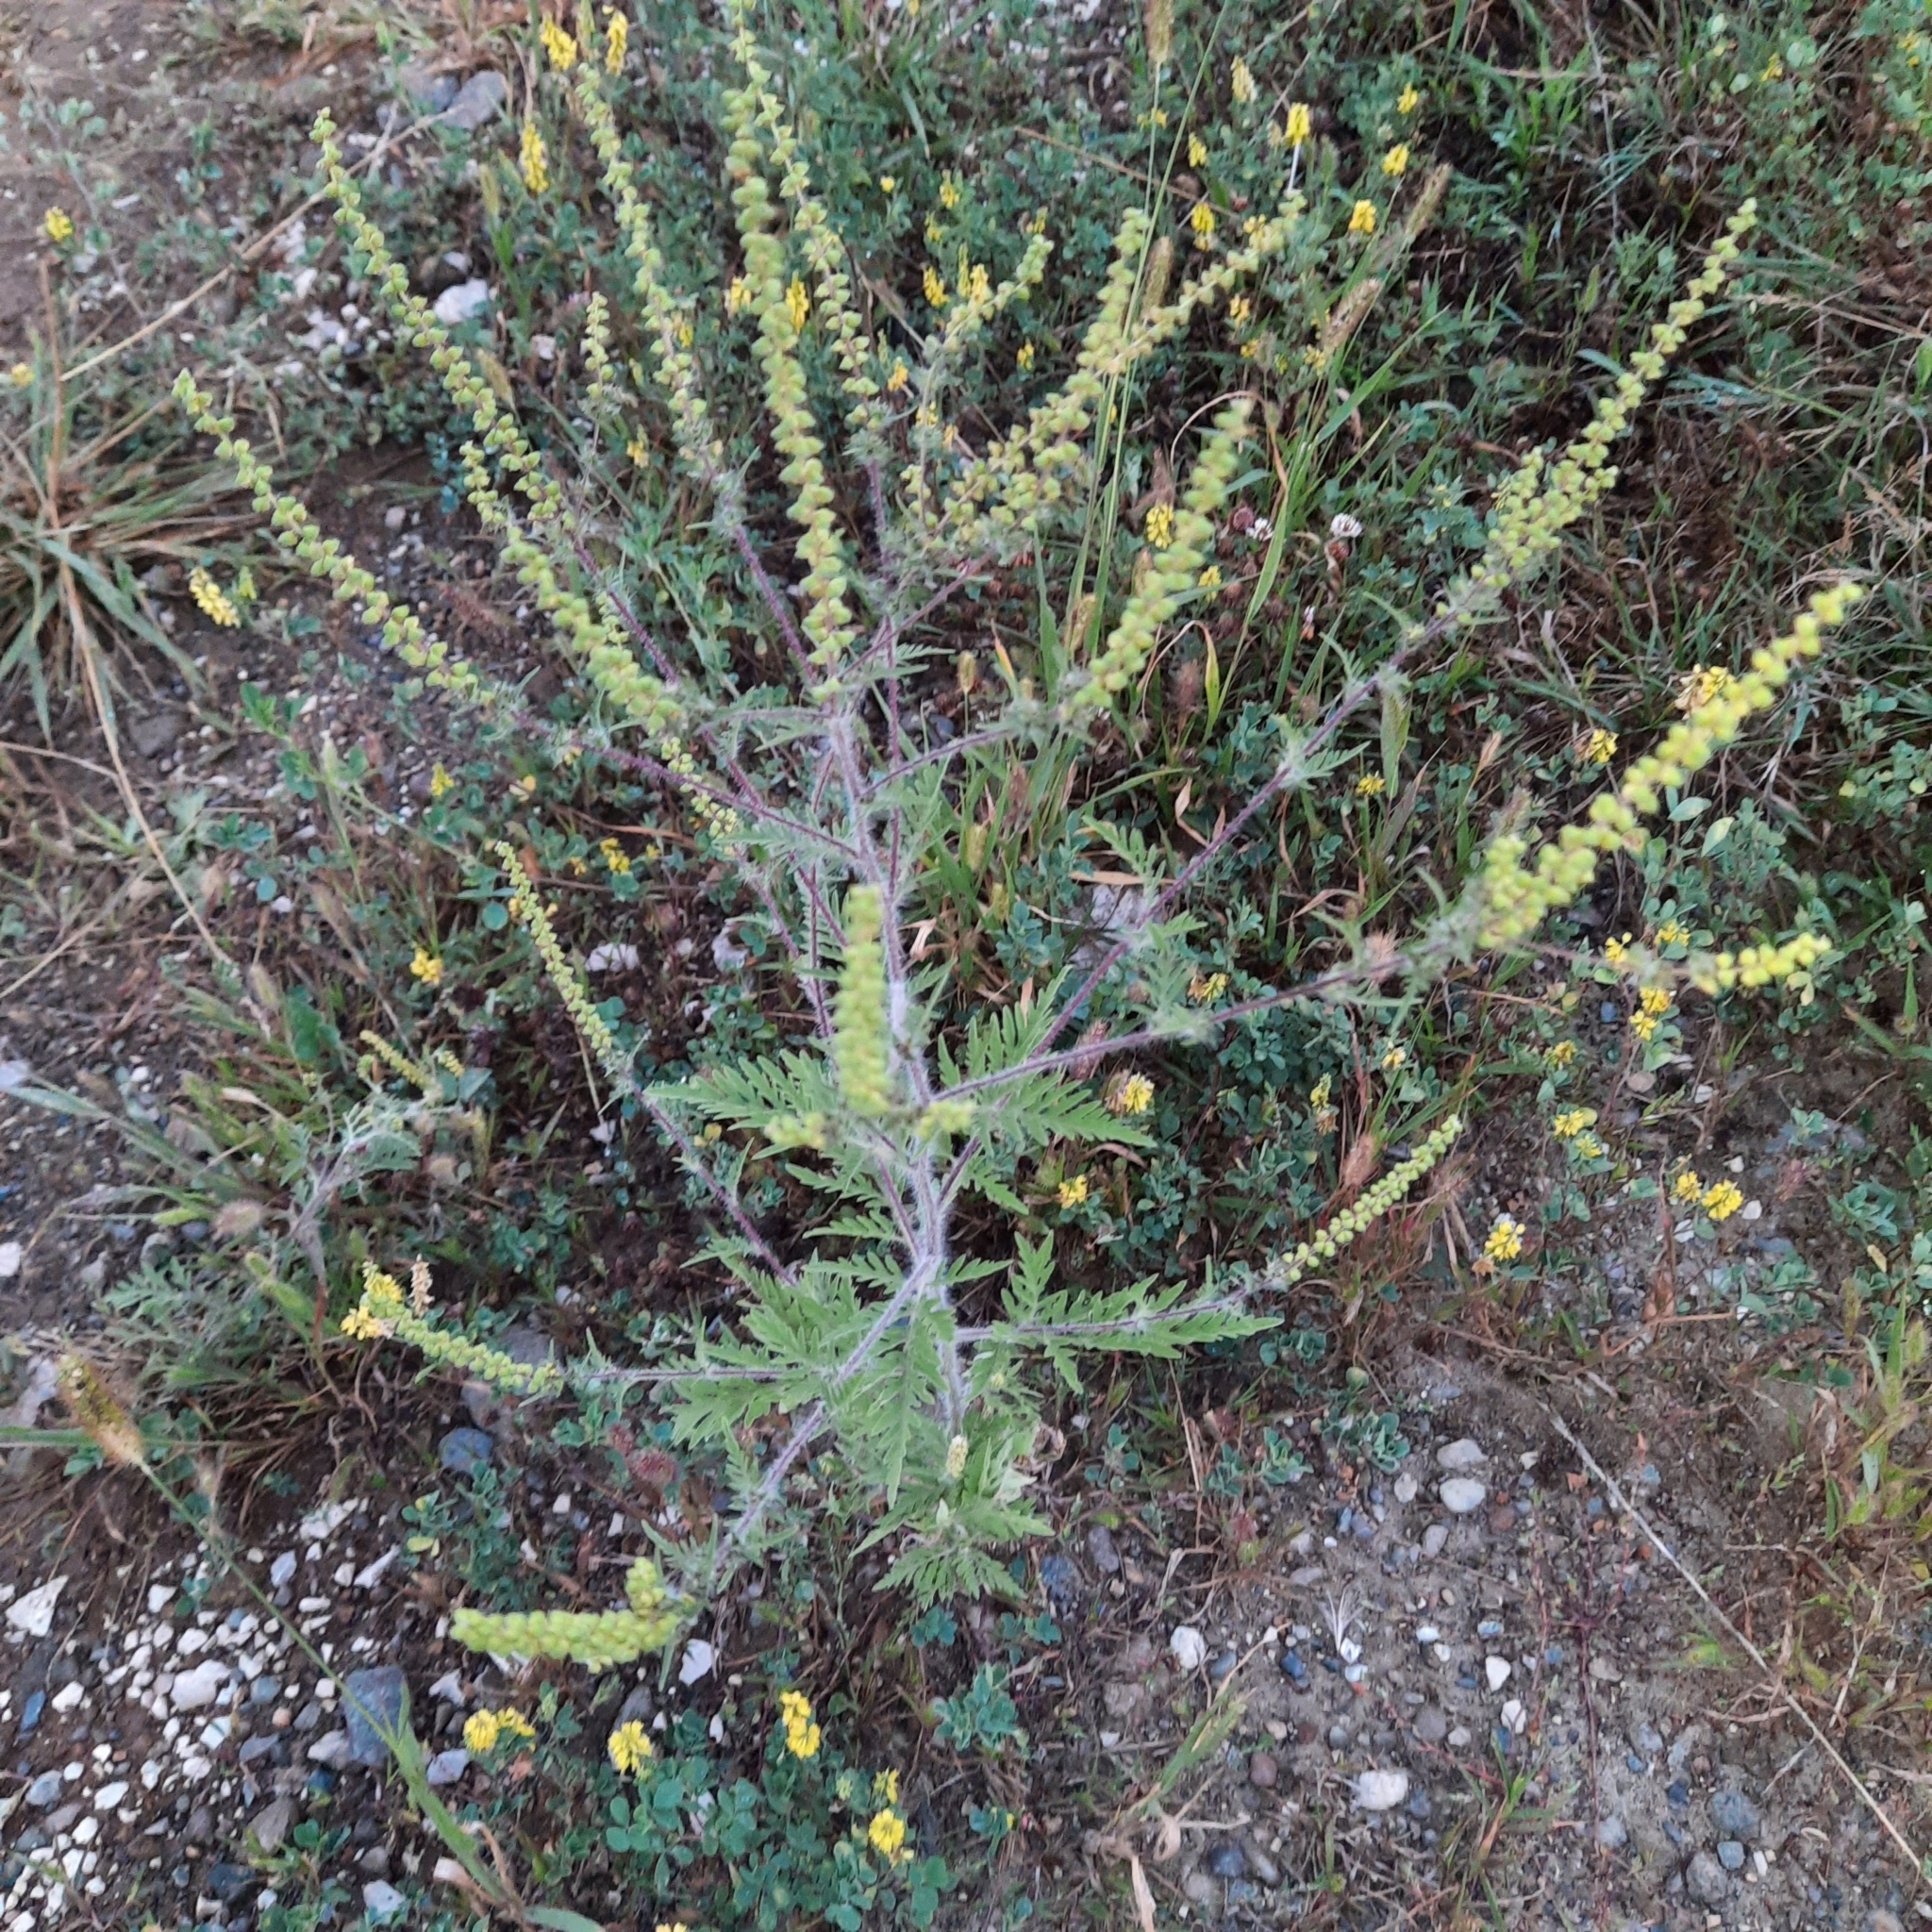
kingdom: Plantae
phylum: Tracheophyta
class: Magnoliopsida
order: Asterales
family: Asteraceae
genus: Ambrosia
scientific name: Ambrosia artemisiifolia
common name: Annual ragweed
